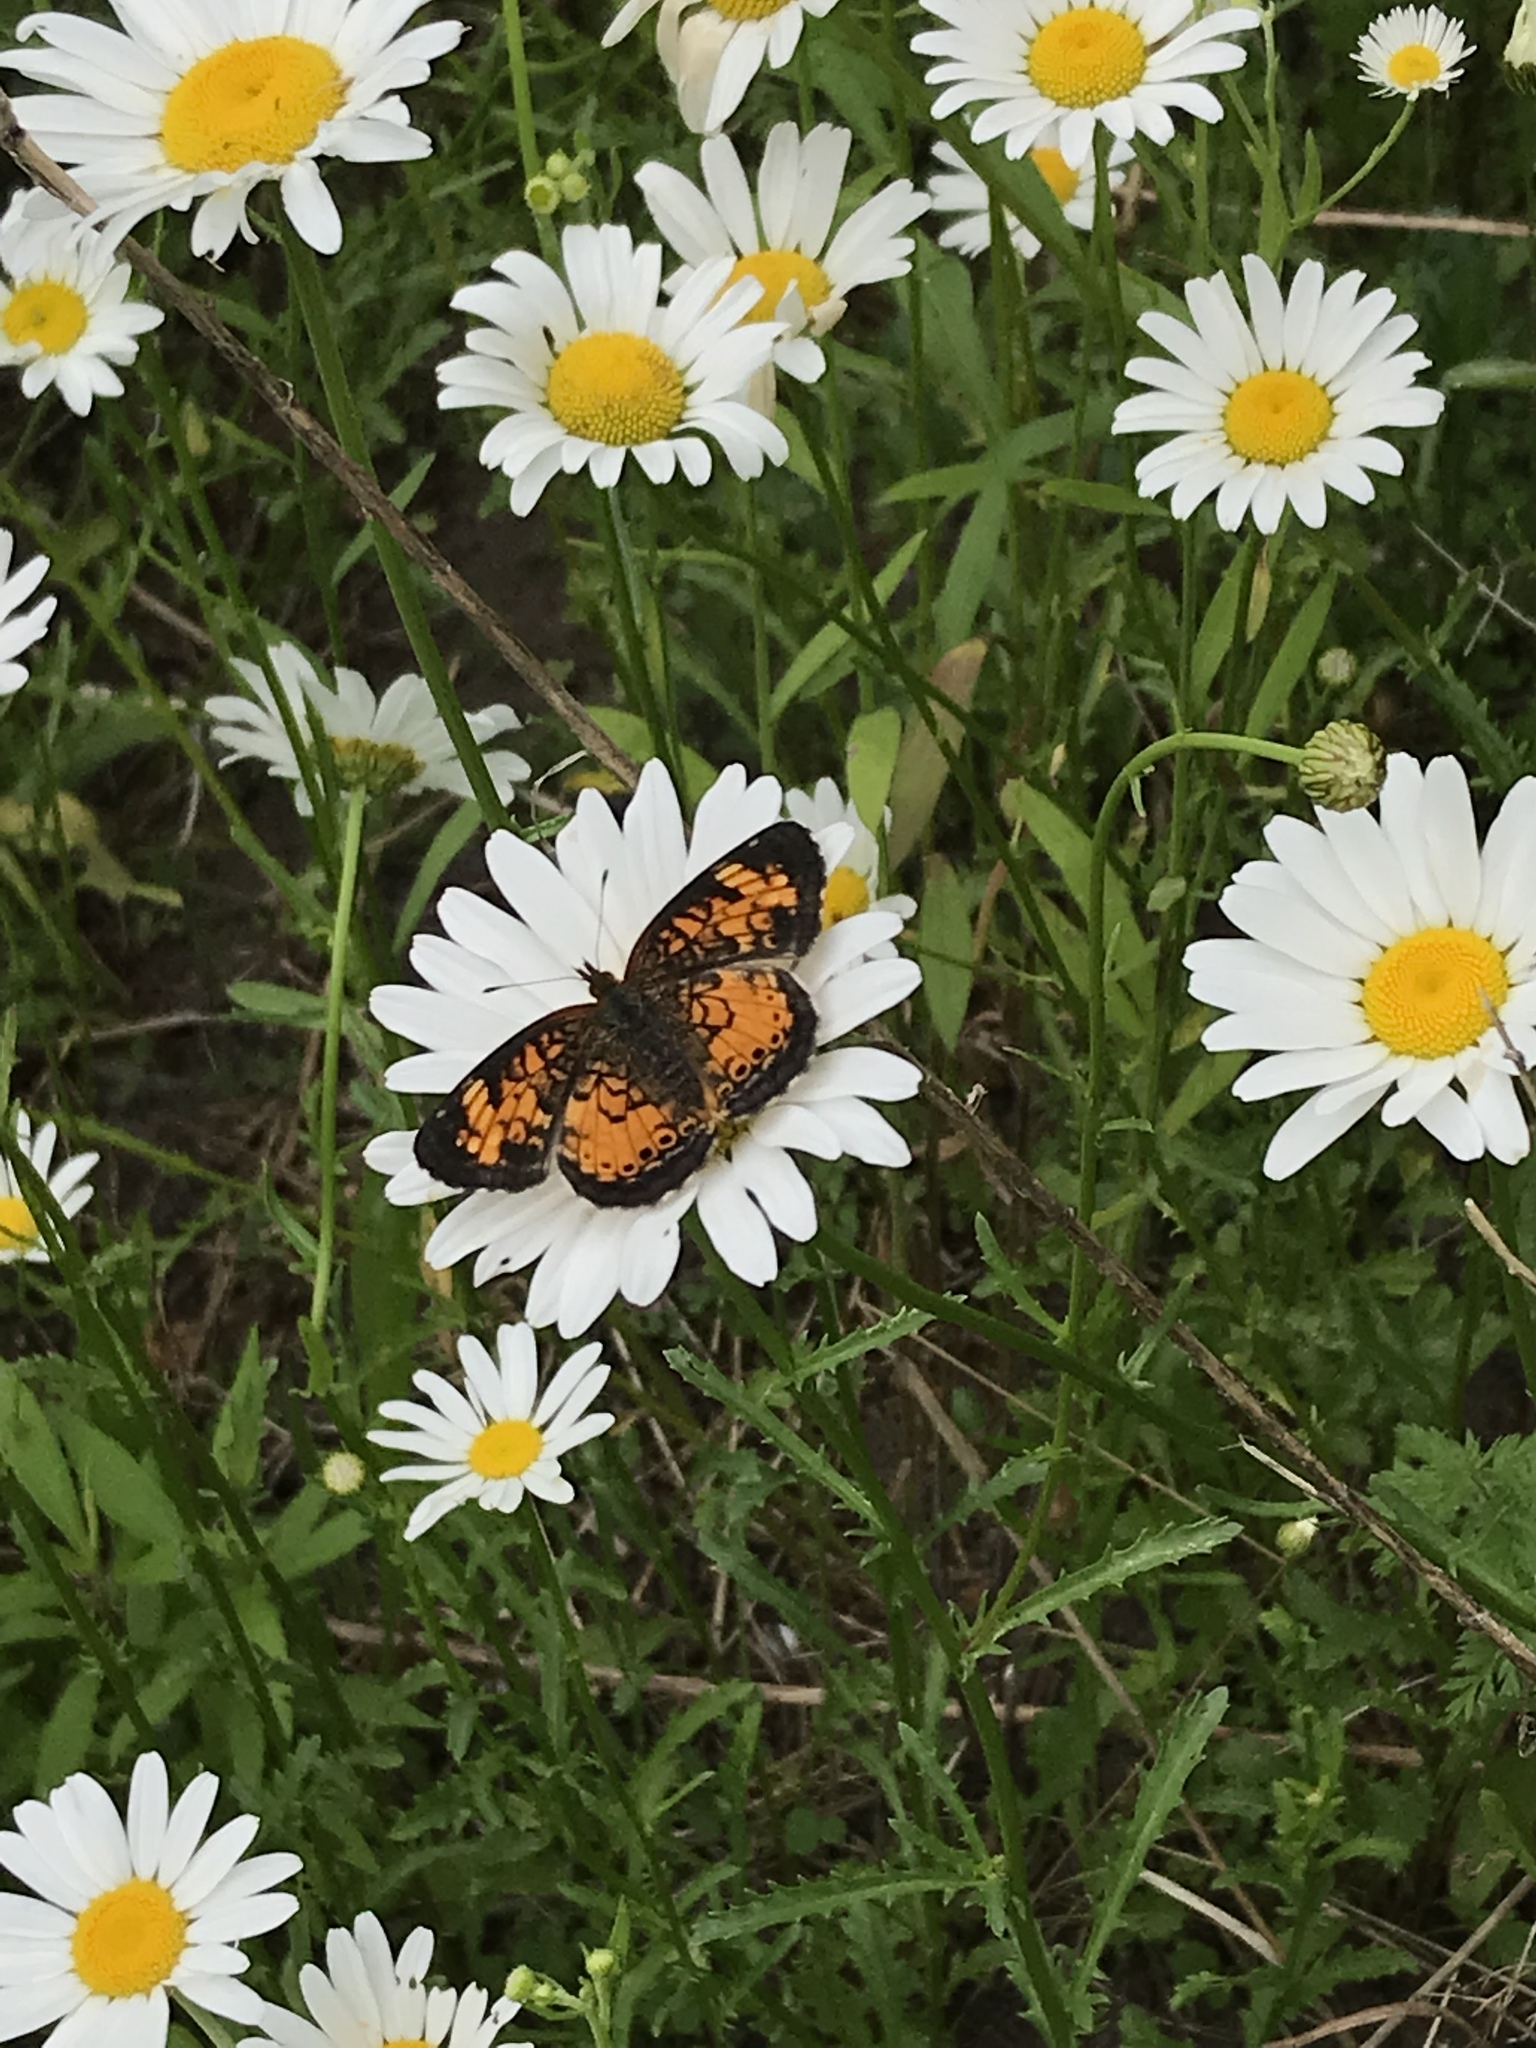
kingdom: Animalia
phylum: Arthropoda
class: Insecta
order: Lepidoptera
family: Nymphalidae
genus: Phyciodes
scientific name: Phyciodes tharos
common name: Pearl crescent
